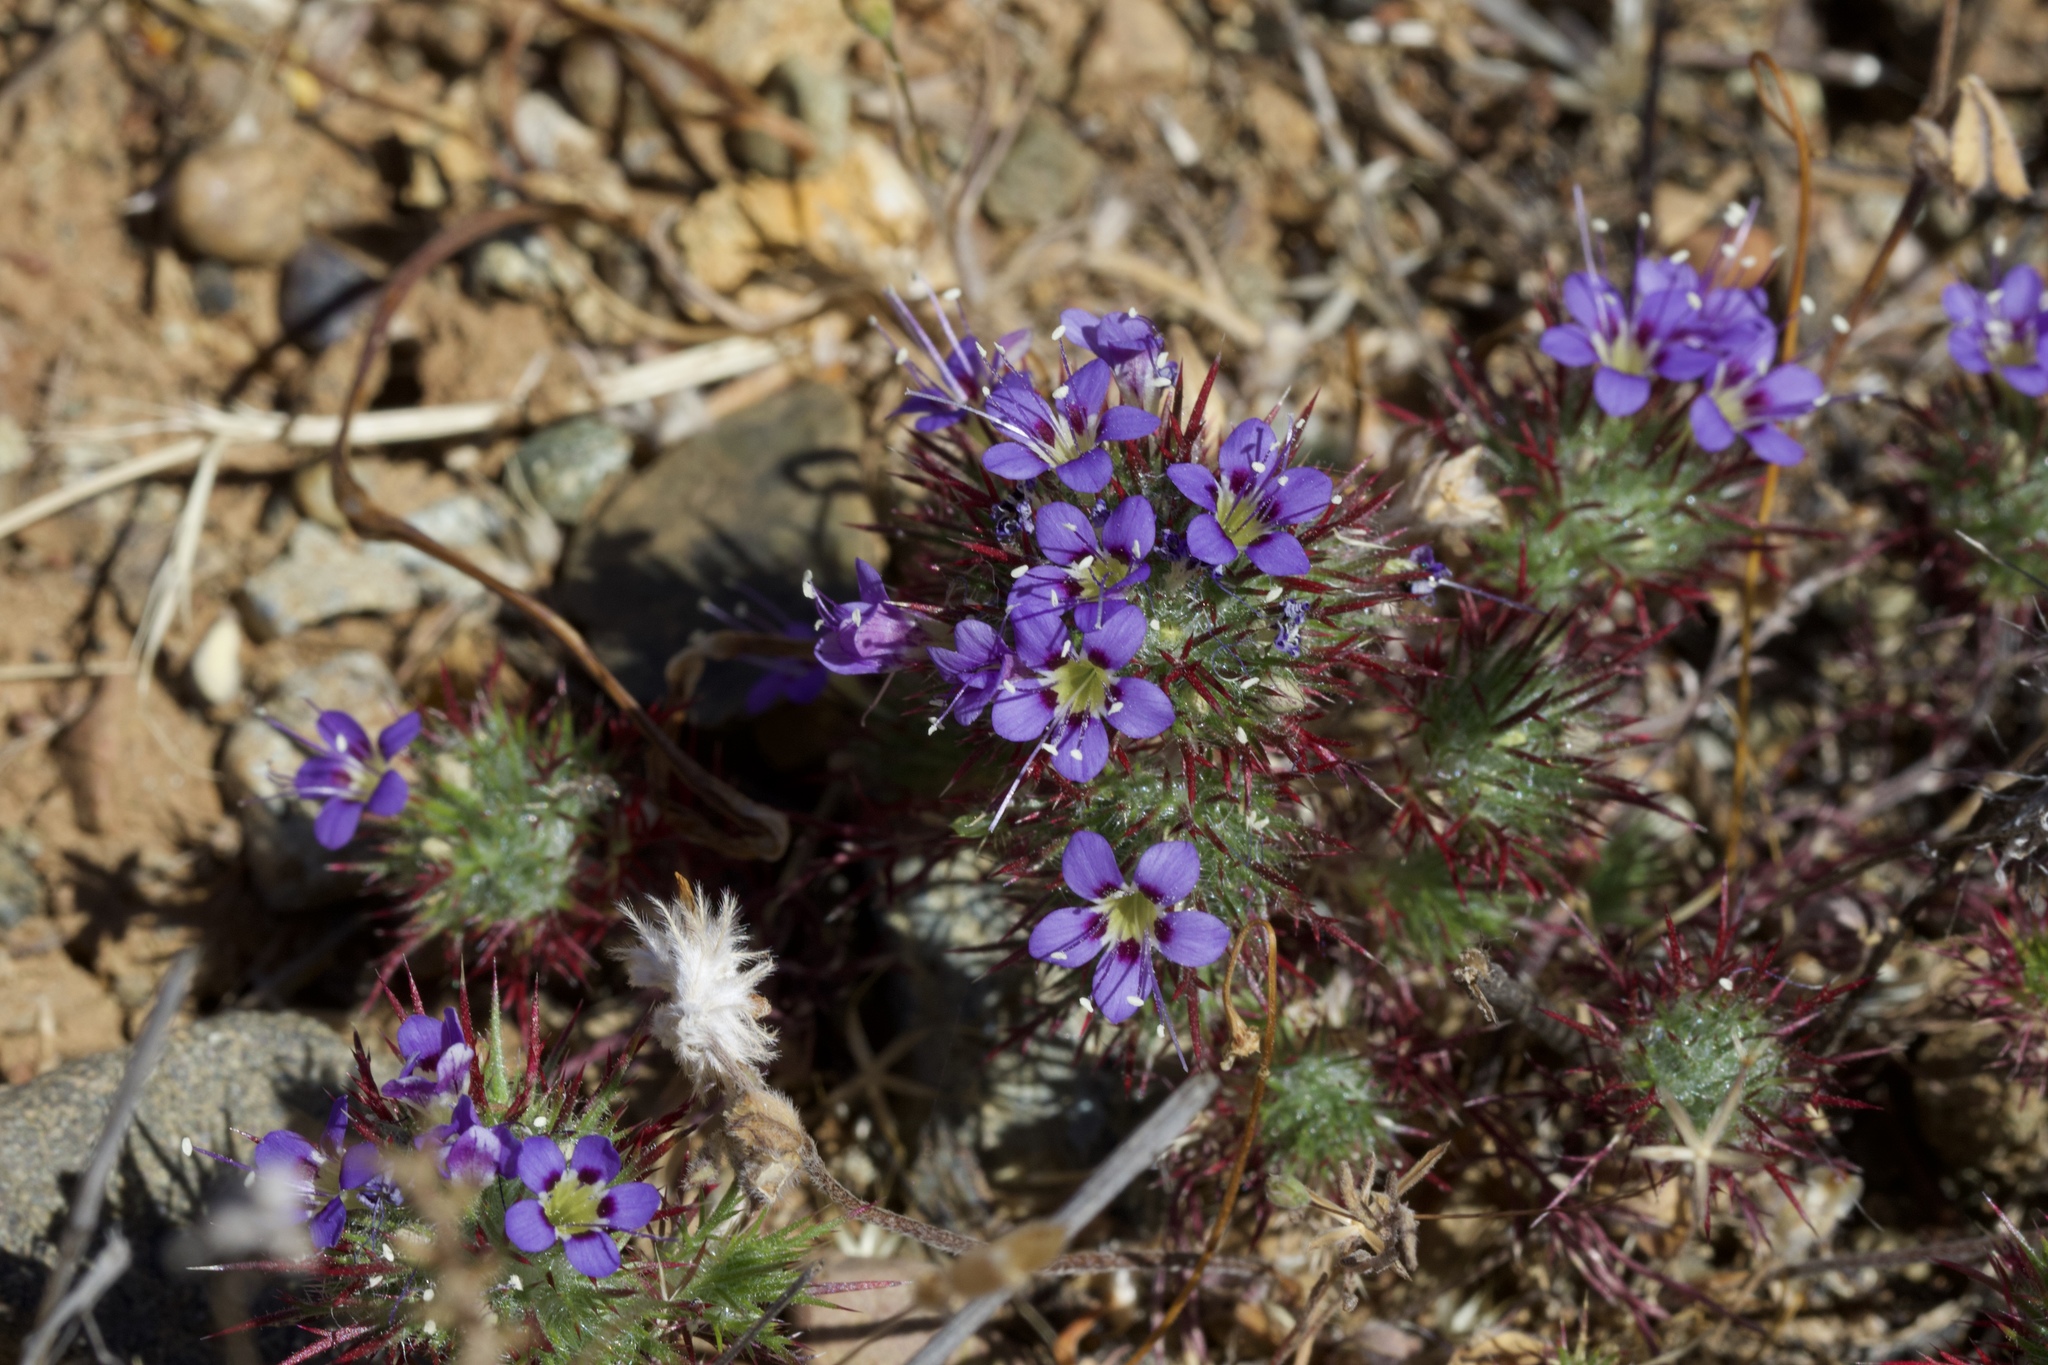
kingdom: Plantae
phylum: Tracheophyta
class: Magnoliopsida
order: Ericales
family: Polemoniaceae
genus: Navarretia
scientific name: Navarretia jepsonii
